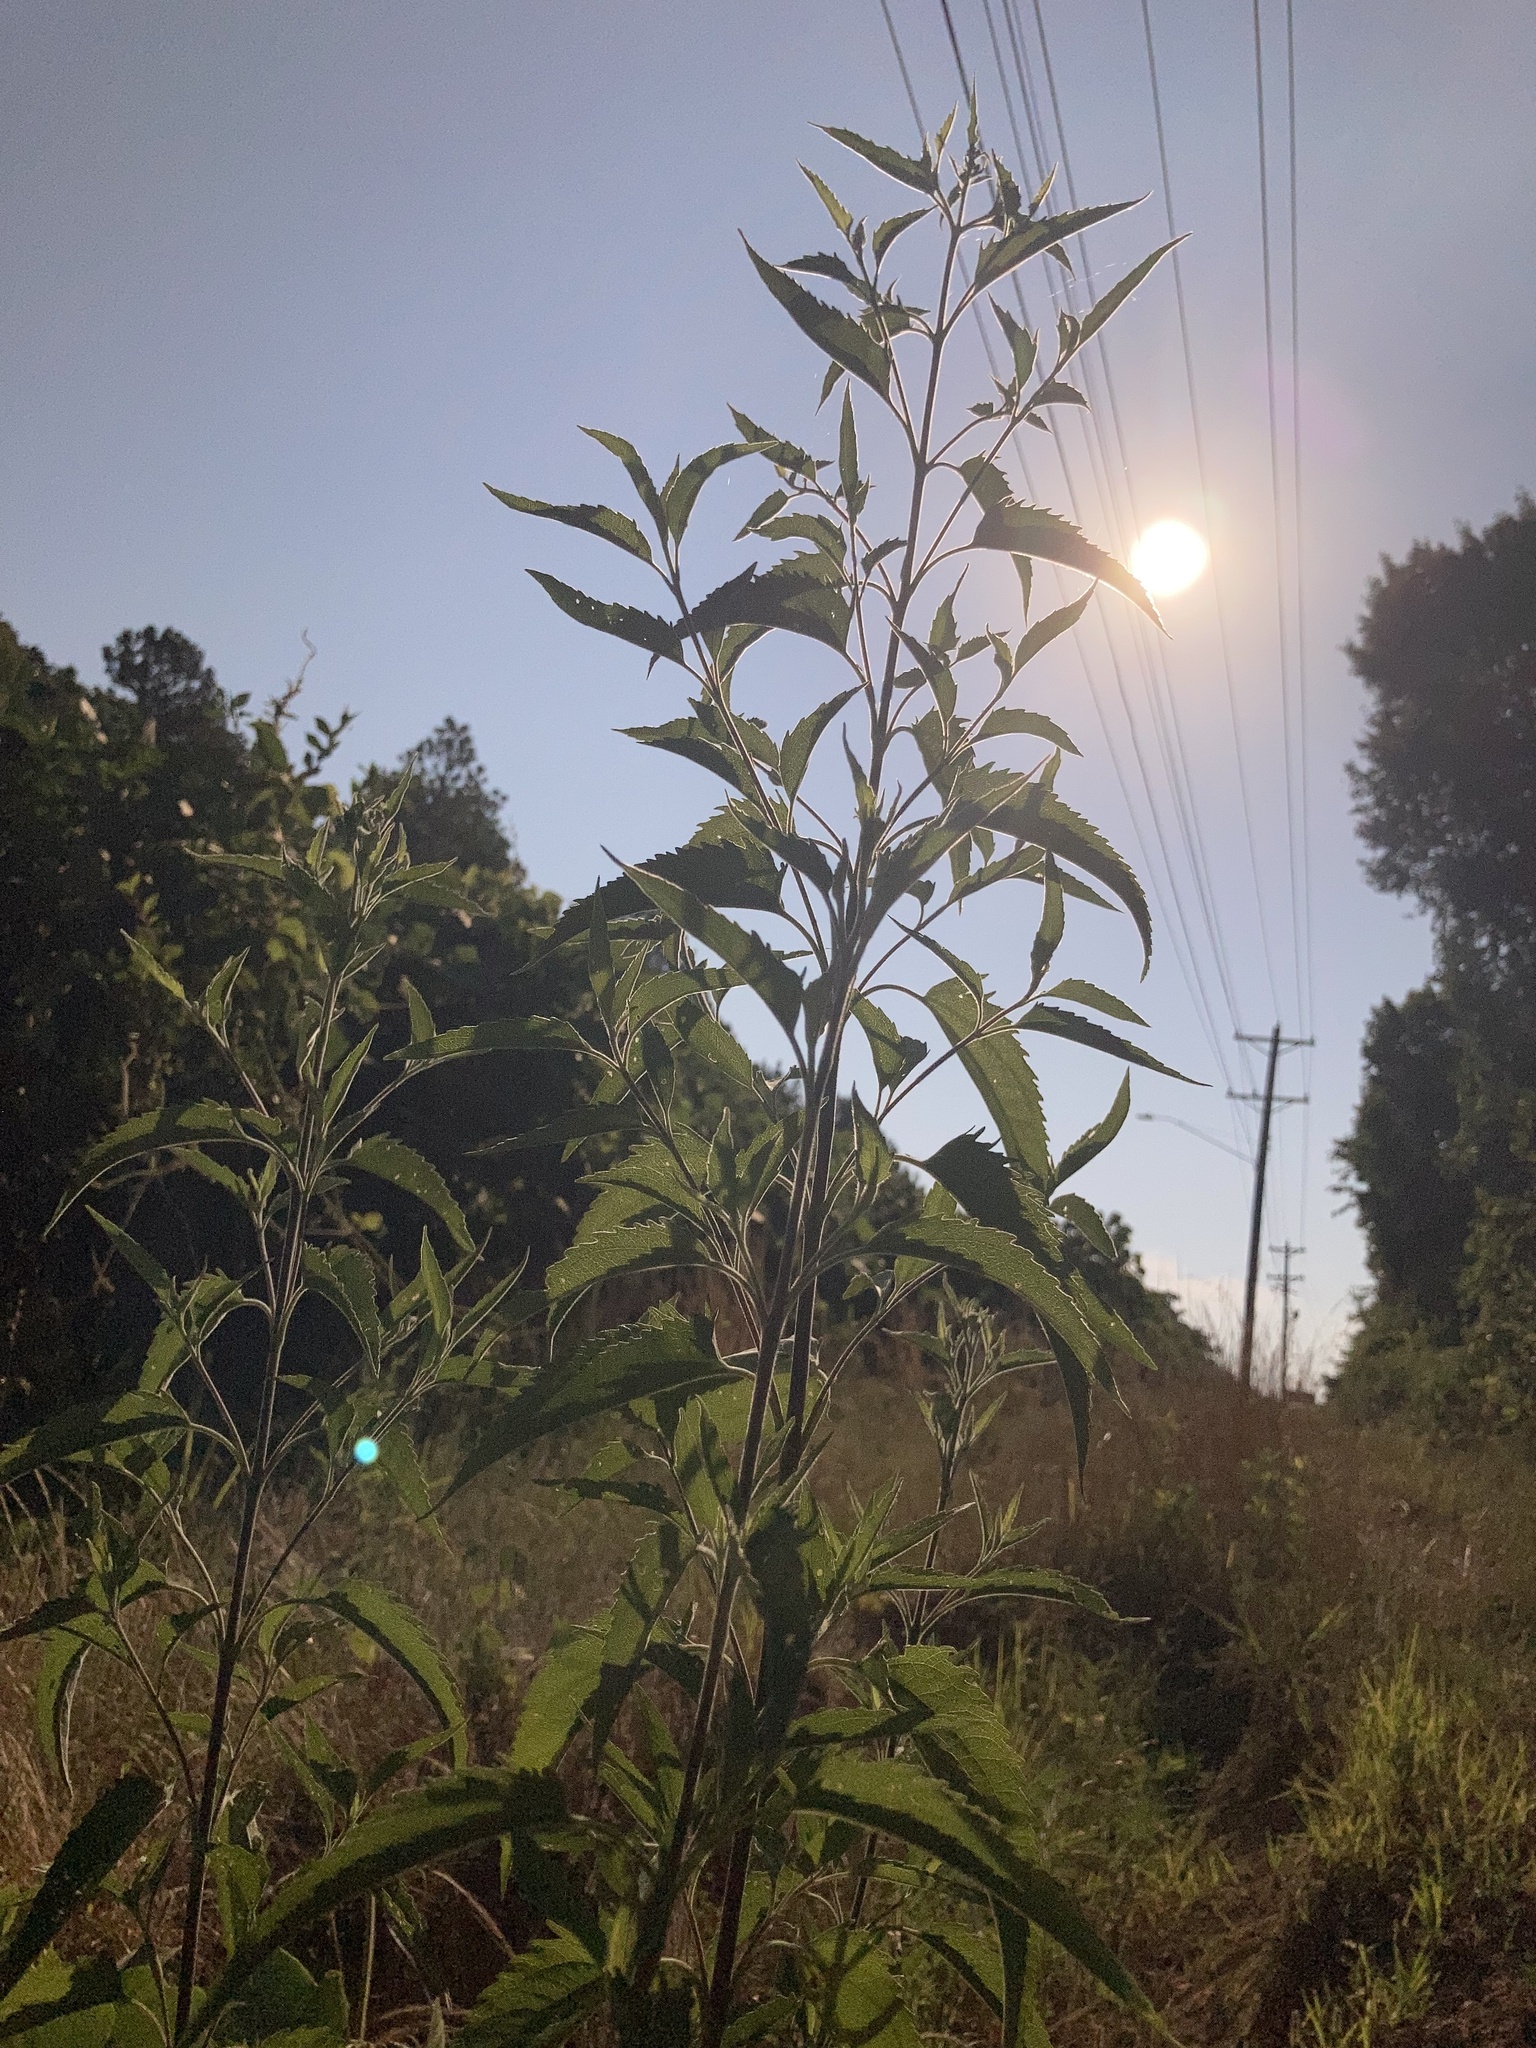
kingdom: Plantae
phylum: Tracheophyta
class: Magnoliopsida
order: Asterales
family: Asteraceae
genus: Eupatorium
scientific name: Eupatorium serotinum
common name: Late boneset
